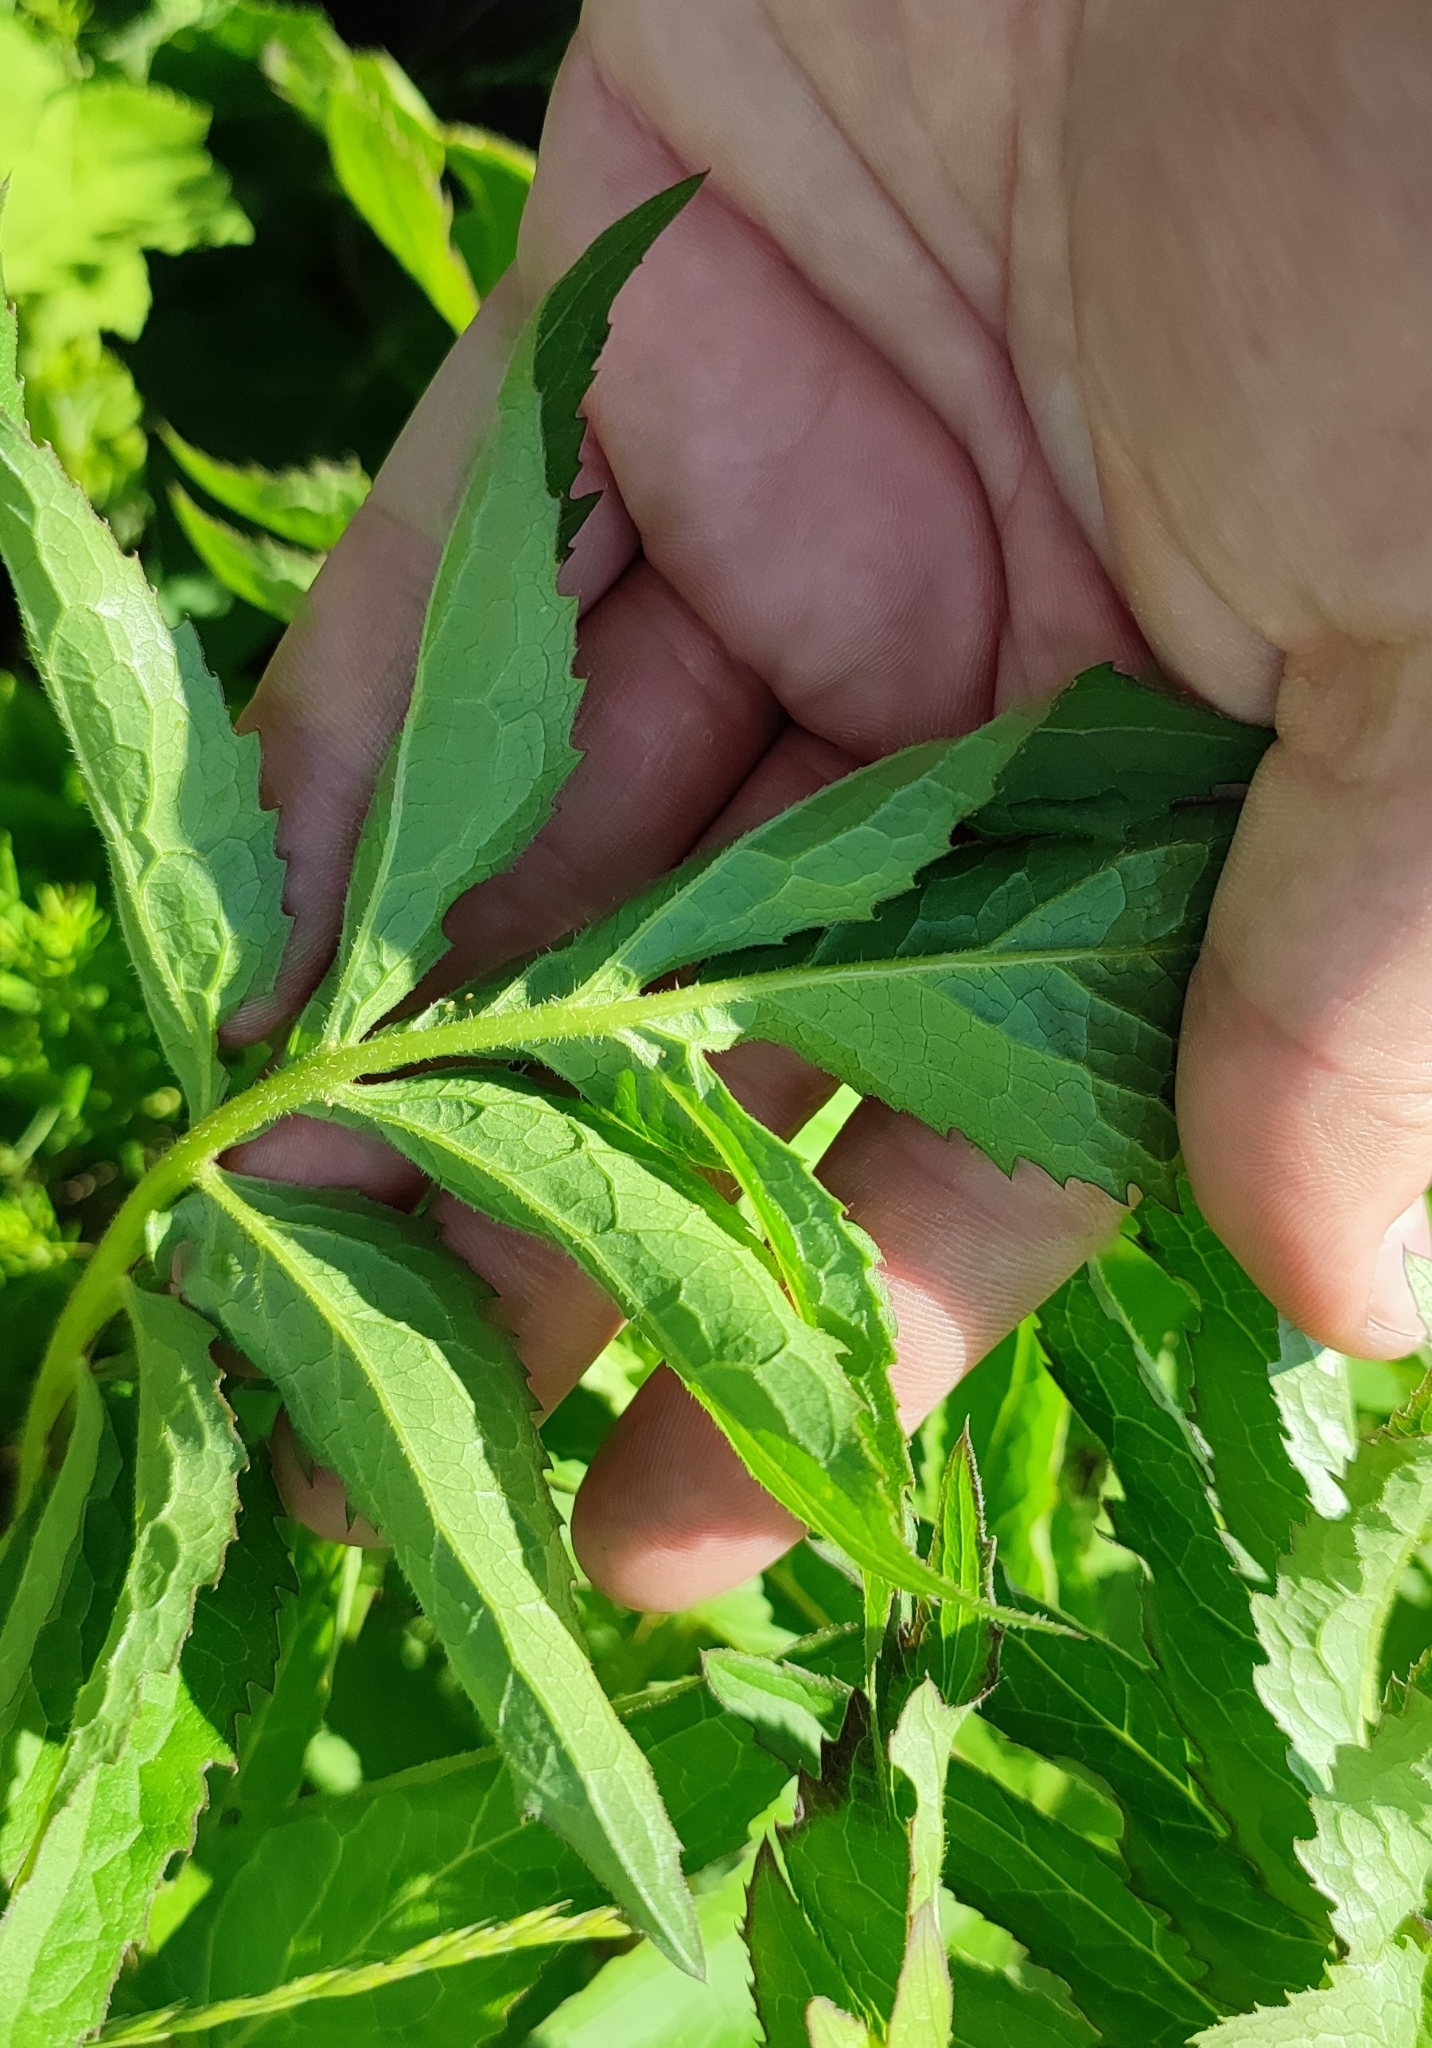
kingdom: Plantae
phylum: Tracheophyta
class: Magnoliopsida
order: Asterales
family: Asteraceae
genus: Serratula
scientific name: Serratula coronata
